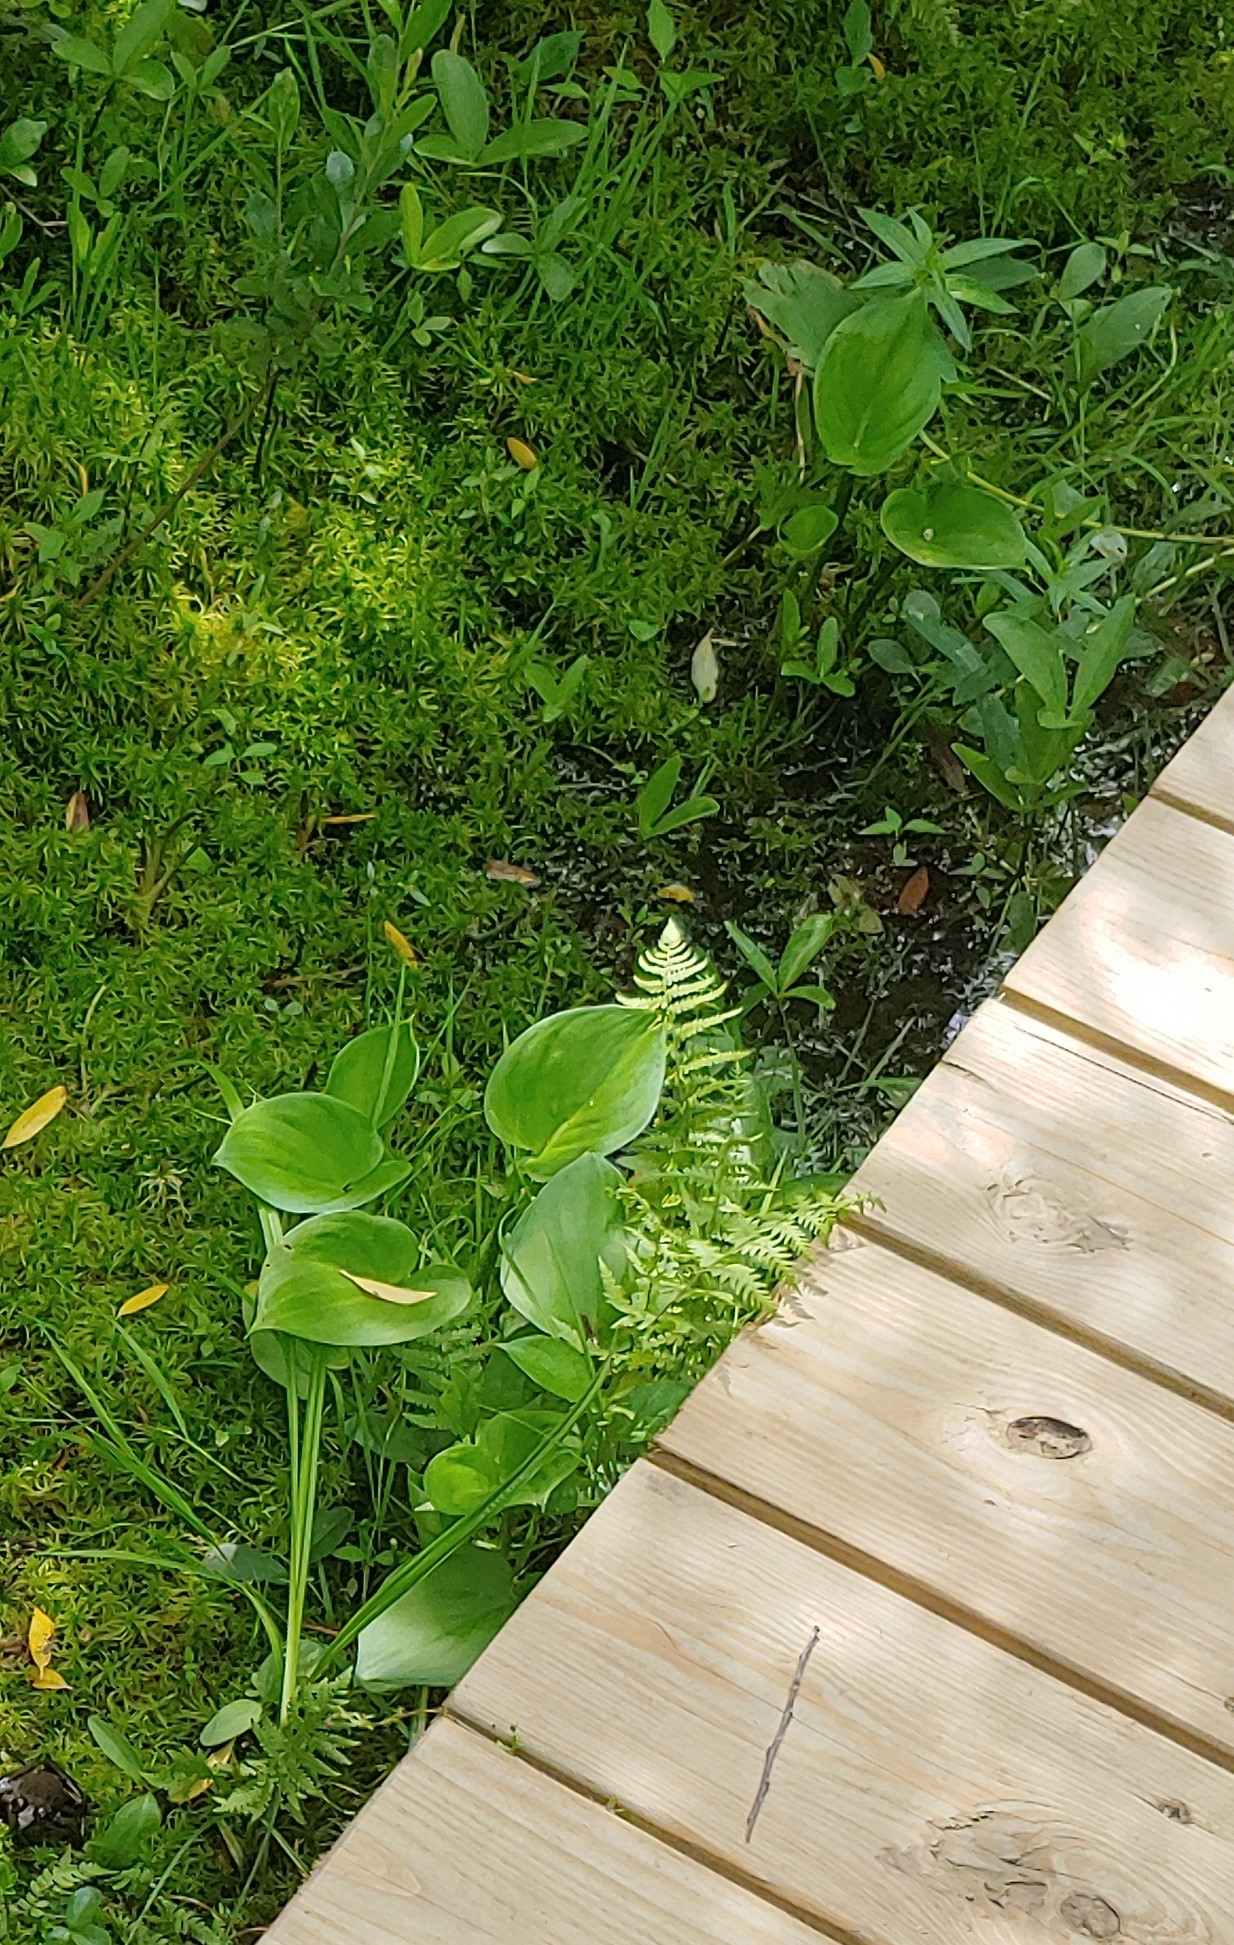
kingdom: Plantae
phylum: Tracheophyta
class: Magnoliopsida
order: Asterales
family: Menyanthaceae
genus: Menyanthes
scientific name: Menyanthes trifoliata
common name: Bogbean
